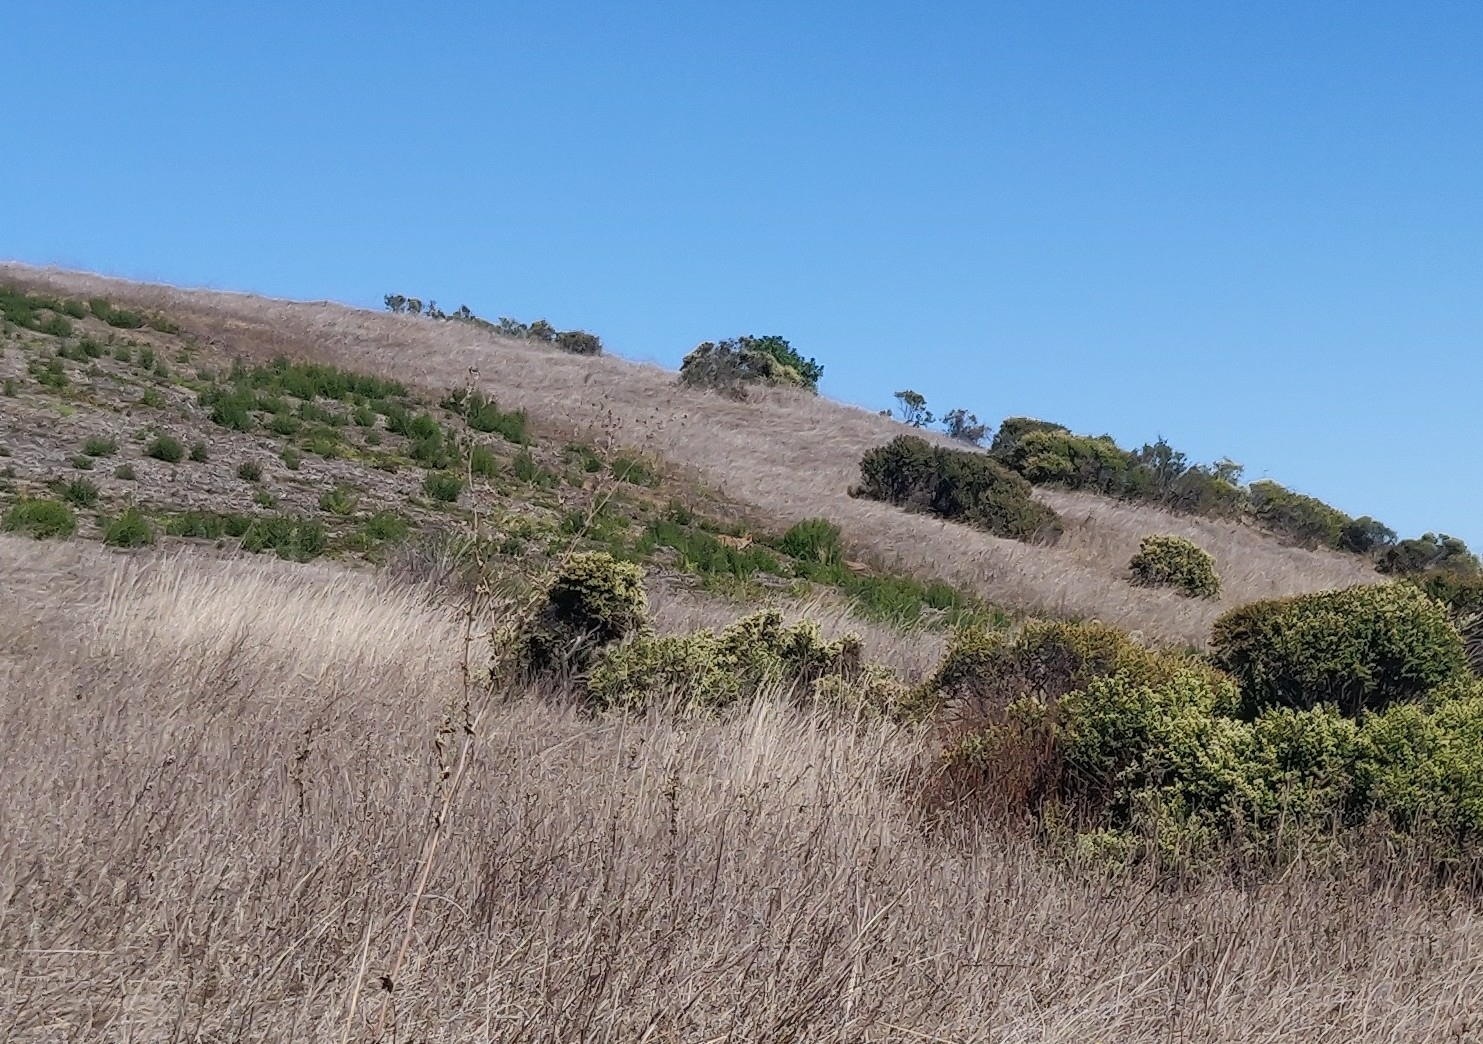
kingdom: Animalia
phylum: Chordata
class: Mammalia
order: Carnivora
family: Canidae
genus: Canis
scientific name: Canis latrans
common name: Coyote
